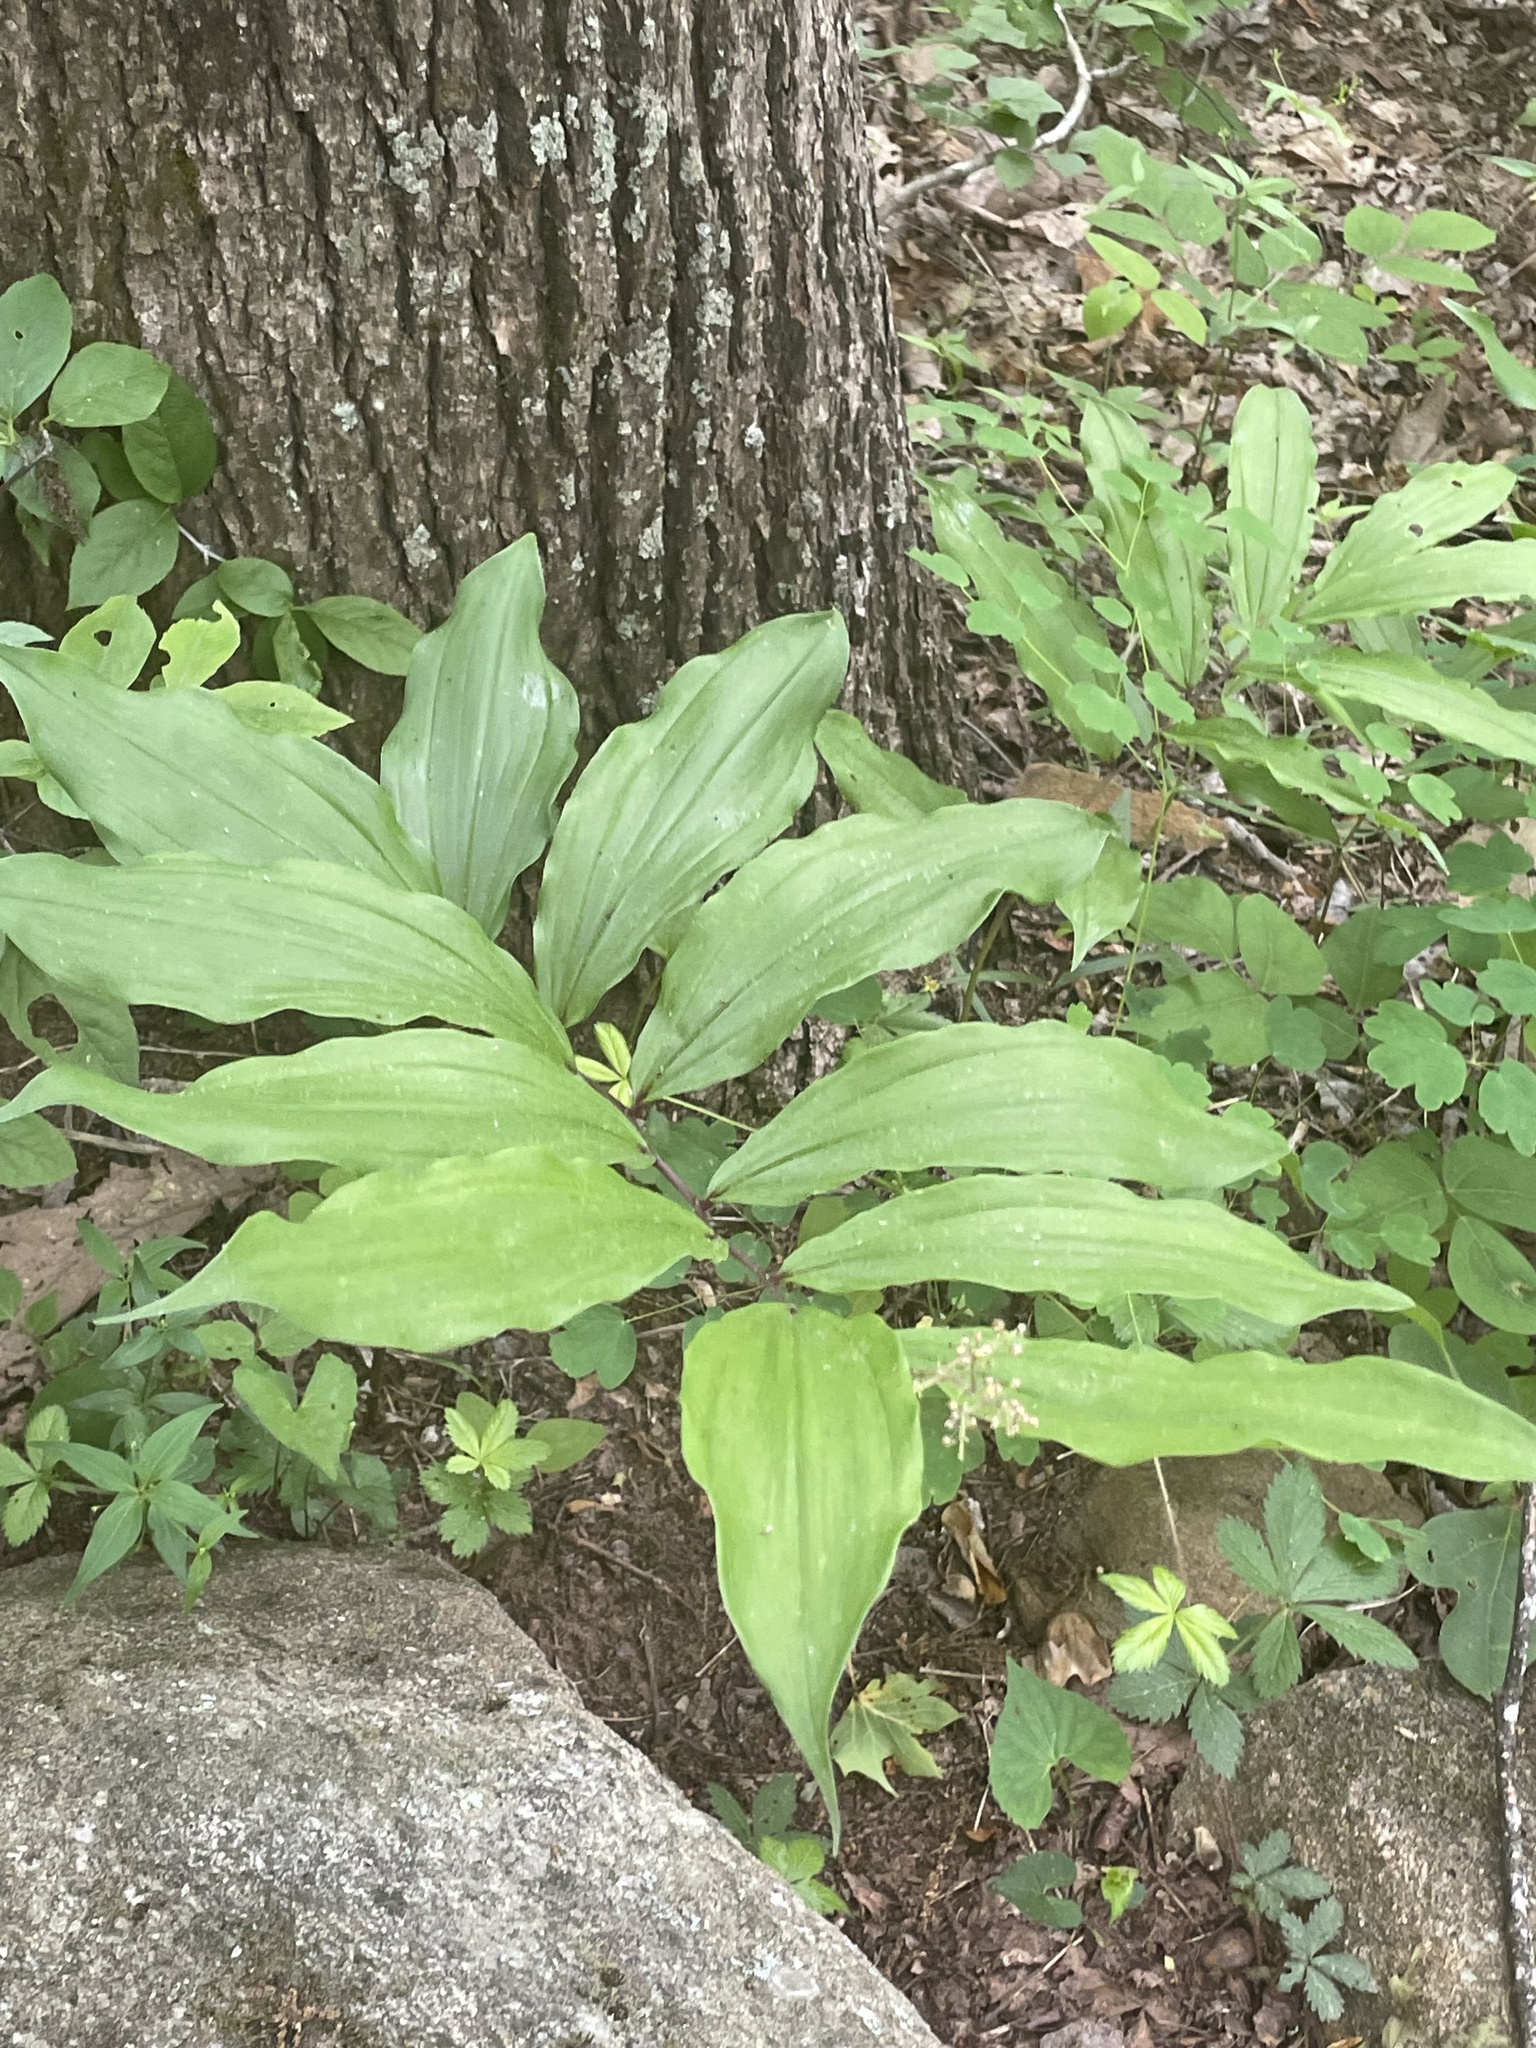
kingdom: Plantae
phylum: Tracheophyta
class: Liliopsida
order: Asparagales
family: Asparagaceae
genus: Maianthemum
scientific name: Maianthemum racemosum
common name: False spikenard
